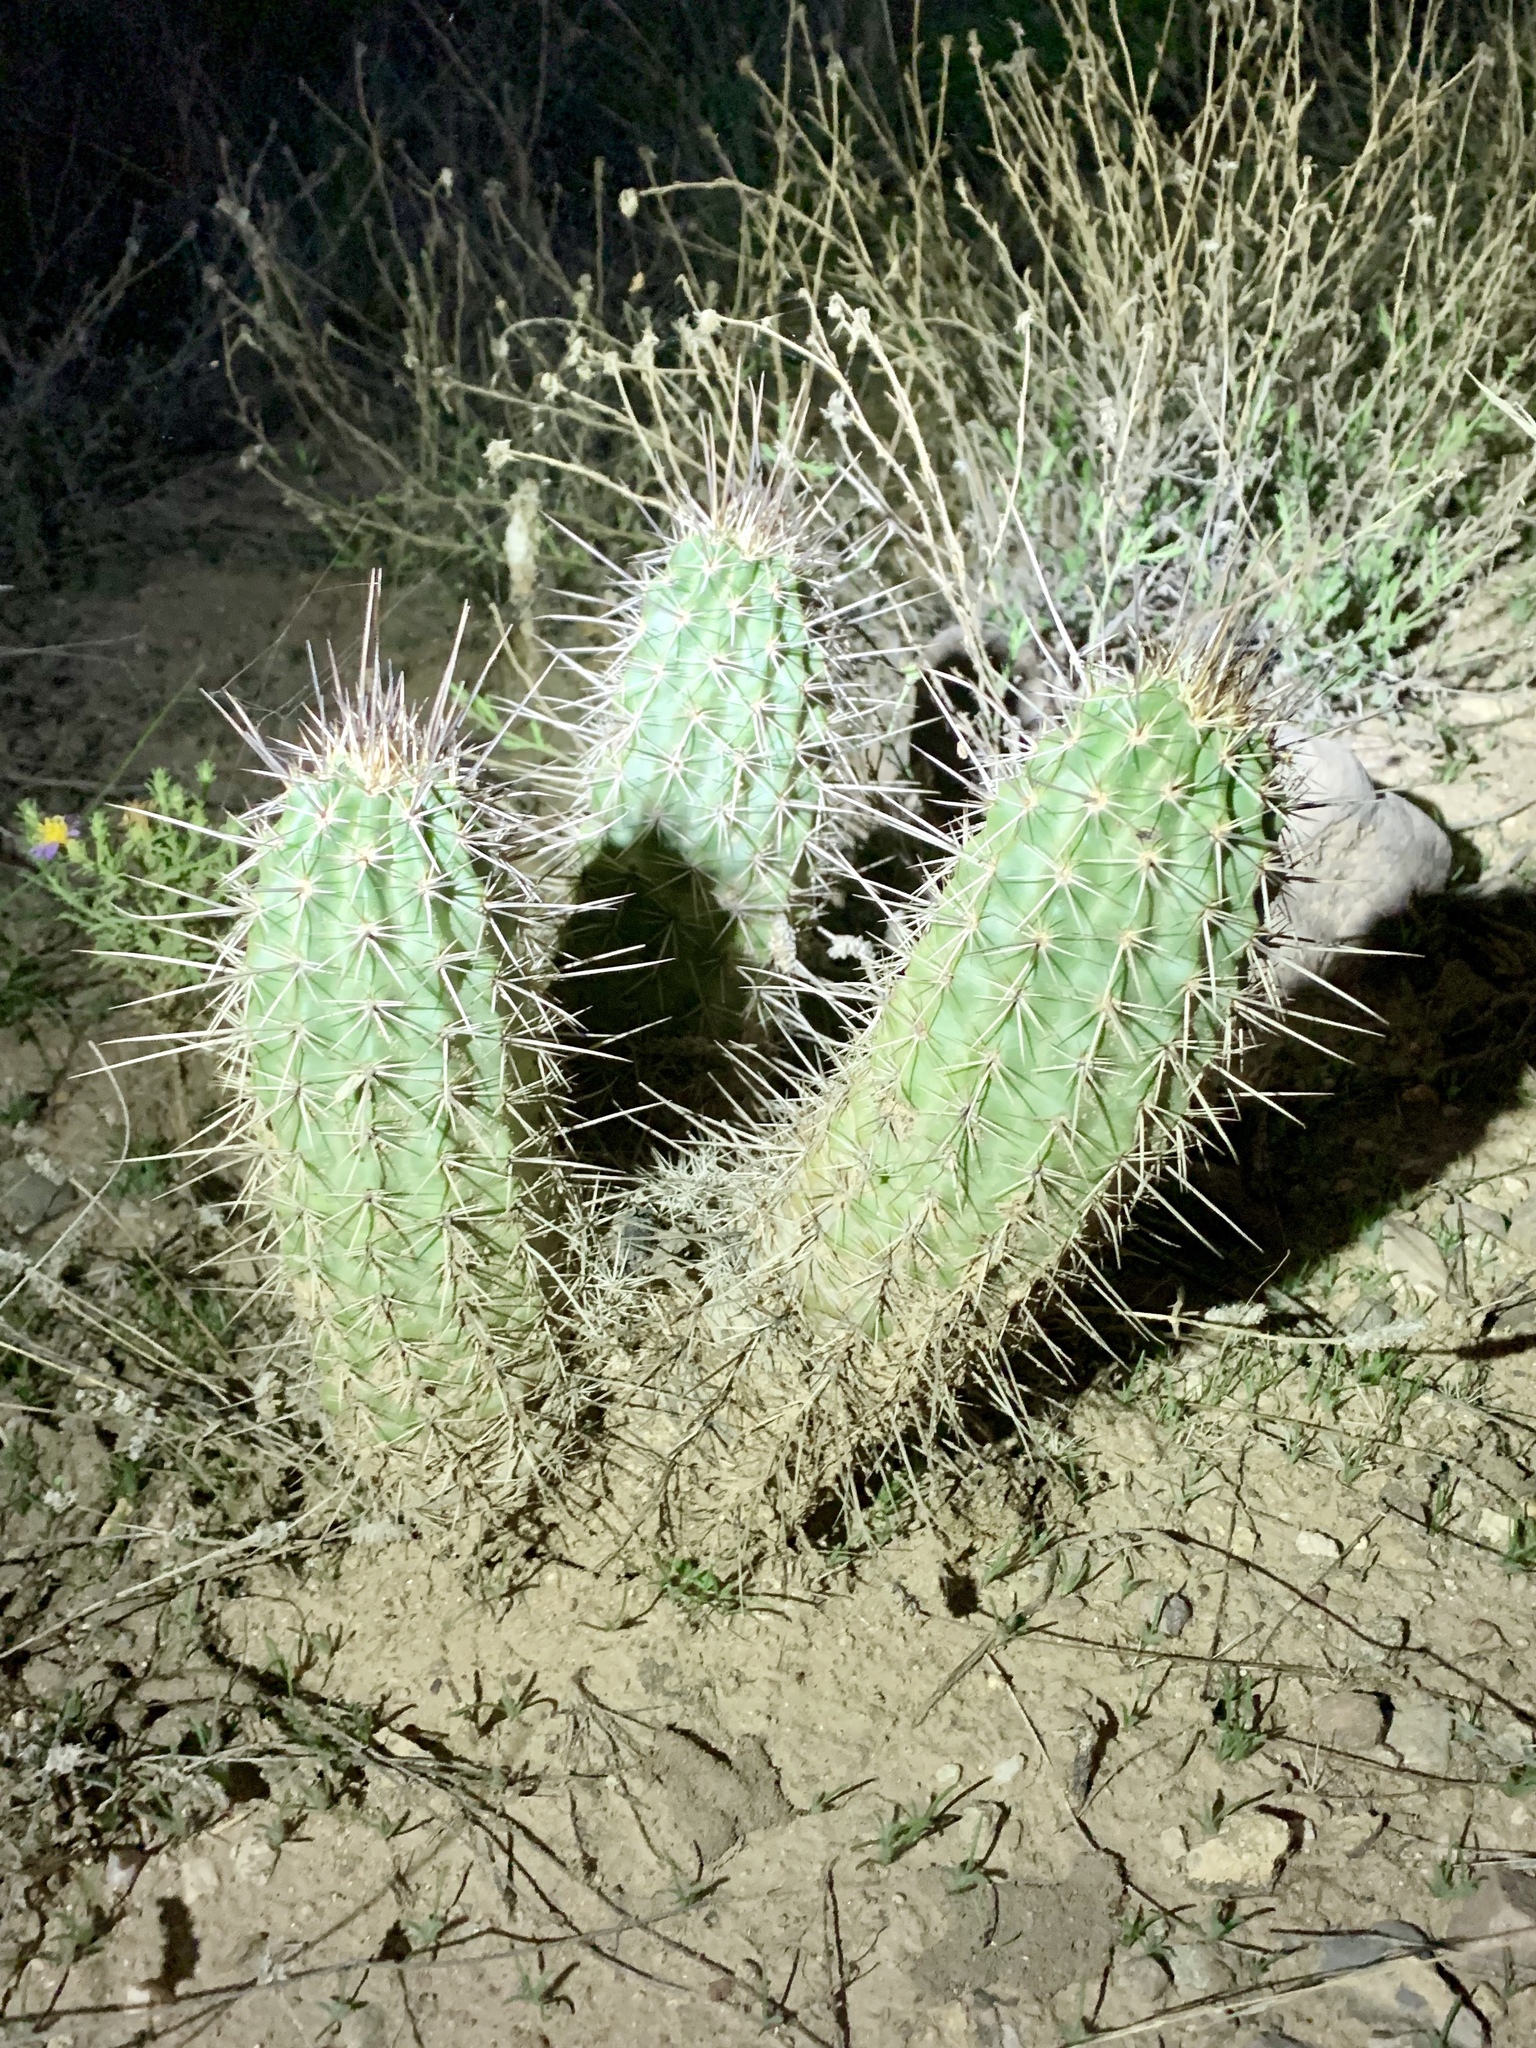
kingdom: Plantae
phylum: Tracheophyta
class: Magnoliopsida
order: Caryophyllales
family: Cactaceae
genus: Echinocereus
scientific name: Echinocereus fasciculatus
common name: Bundle hedgehog
